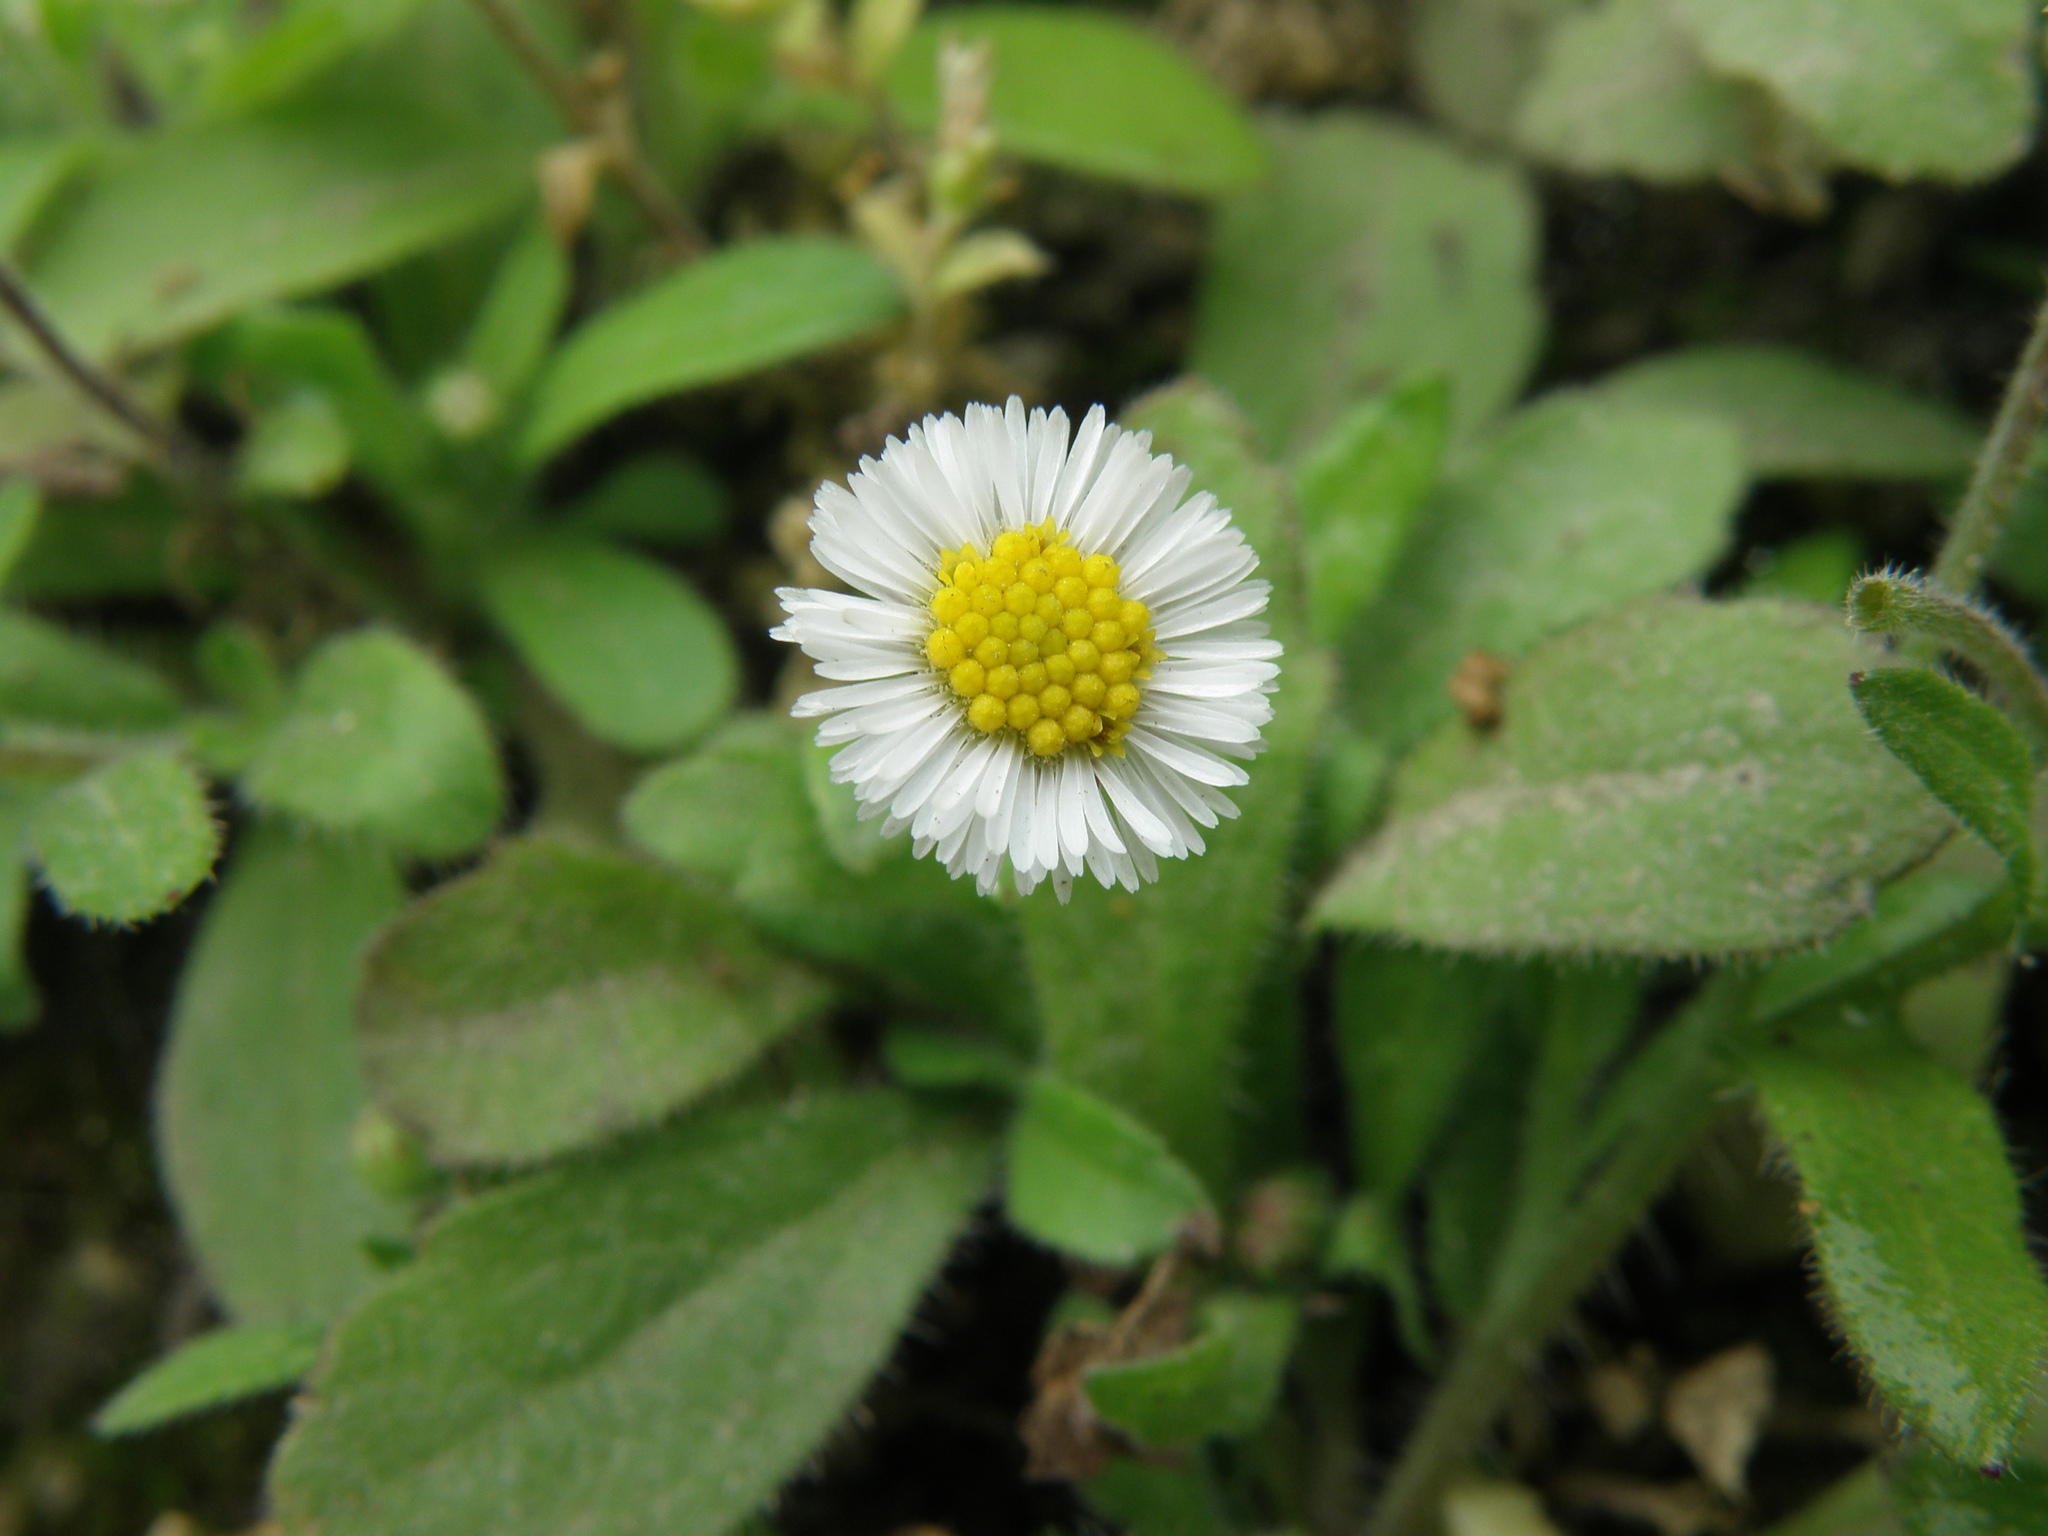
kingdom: Plantae
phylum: Tracheophyta
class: Magnoliopsida
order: Asterales
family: Asteraceae
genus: Erigeron
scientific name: Erigeron leptorhizon
